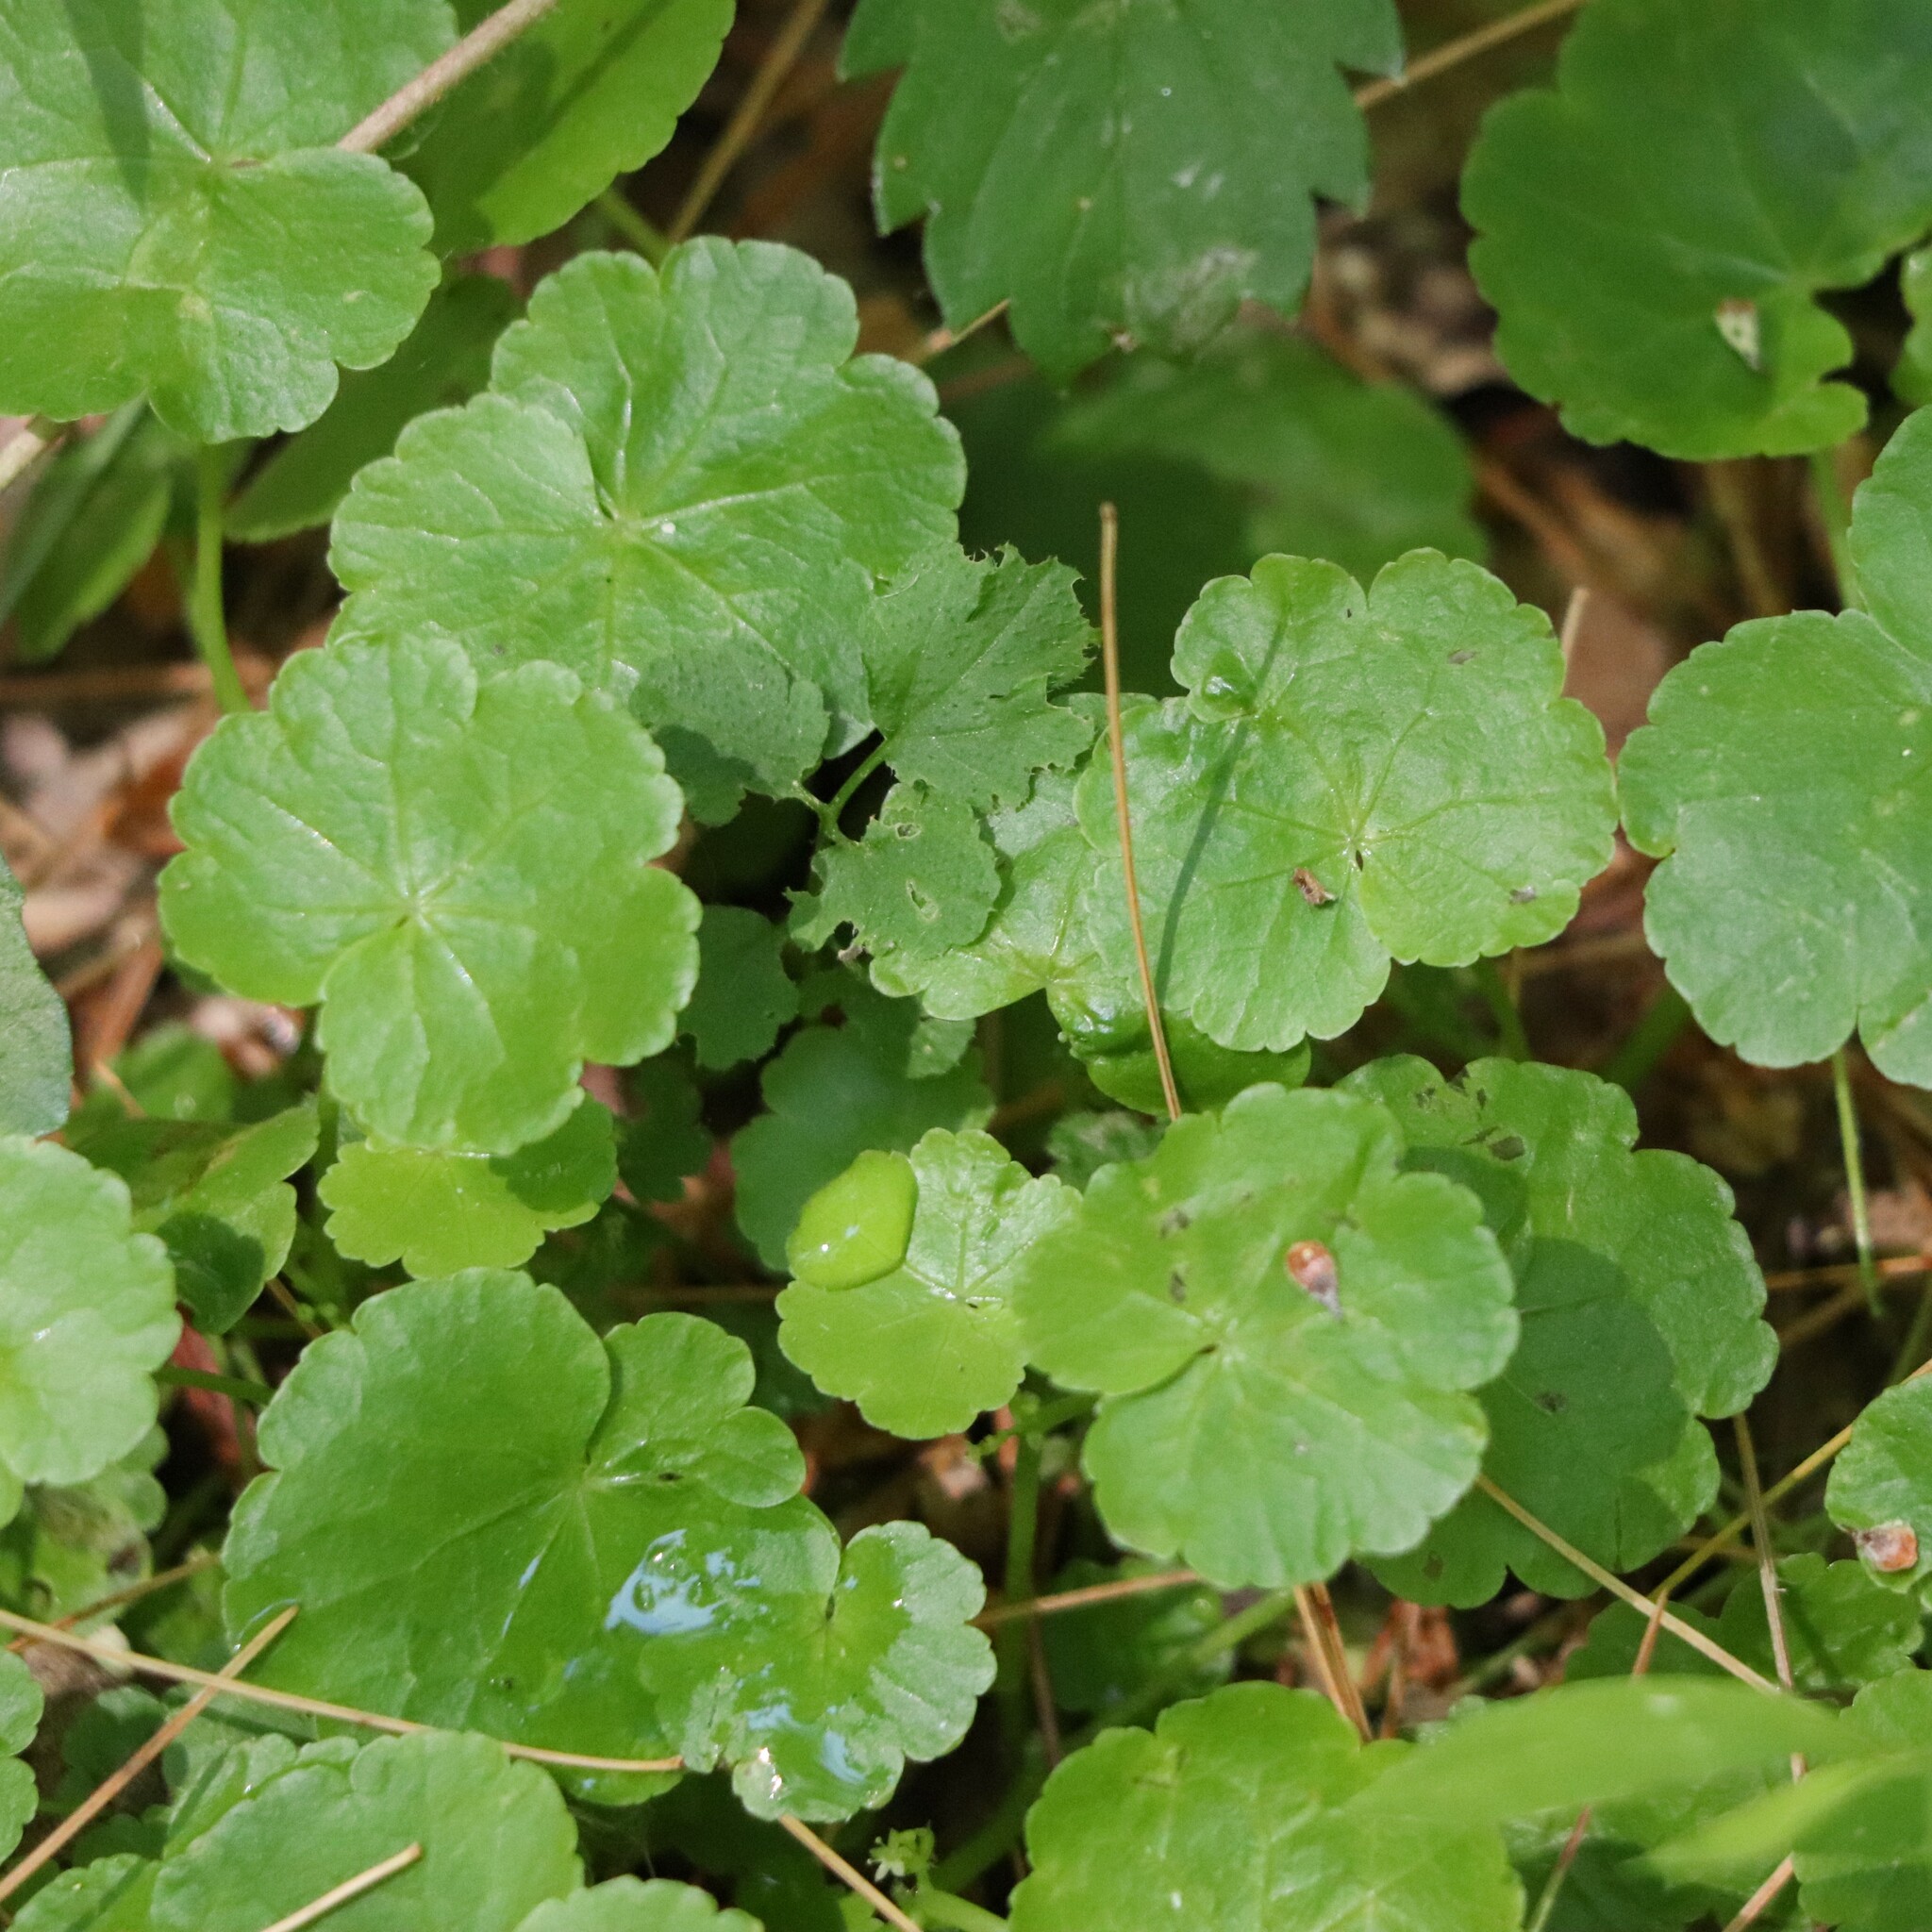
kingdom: Plantae
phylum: Tracheophyta
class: Magnoliopsida
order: Apiales
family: Araliaceae
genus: Hydrocotyle
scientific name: Hydrocotyle americana
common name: American water-pennywort
